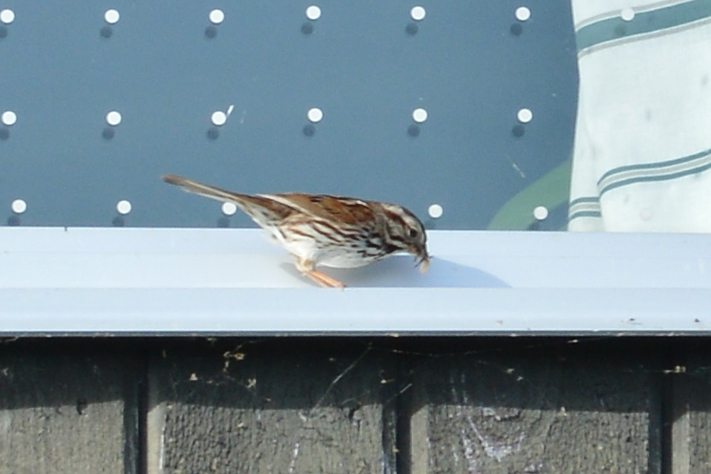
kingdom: Animalia
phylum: Chordata
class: Aves
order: Passeriformes
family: Passerellidae
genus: Melospiza
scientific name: Melospiza melodia
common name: Song sparrow
